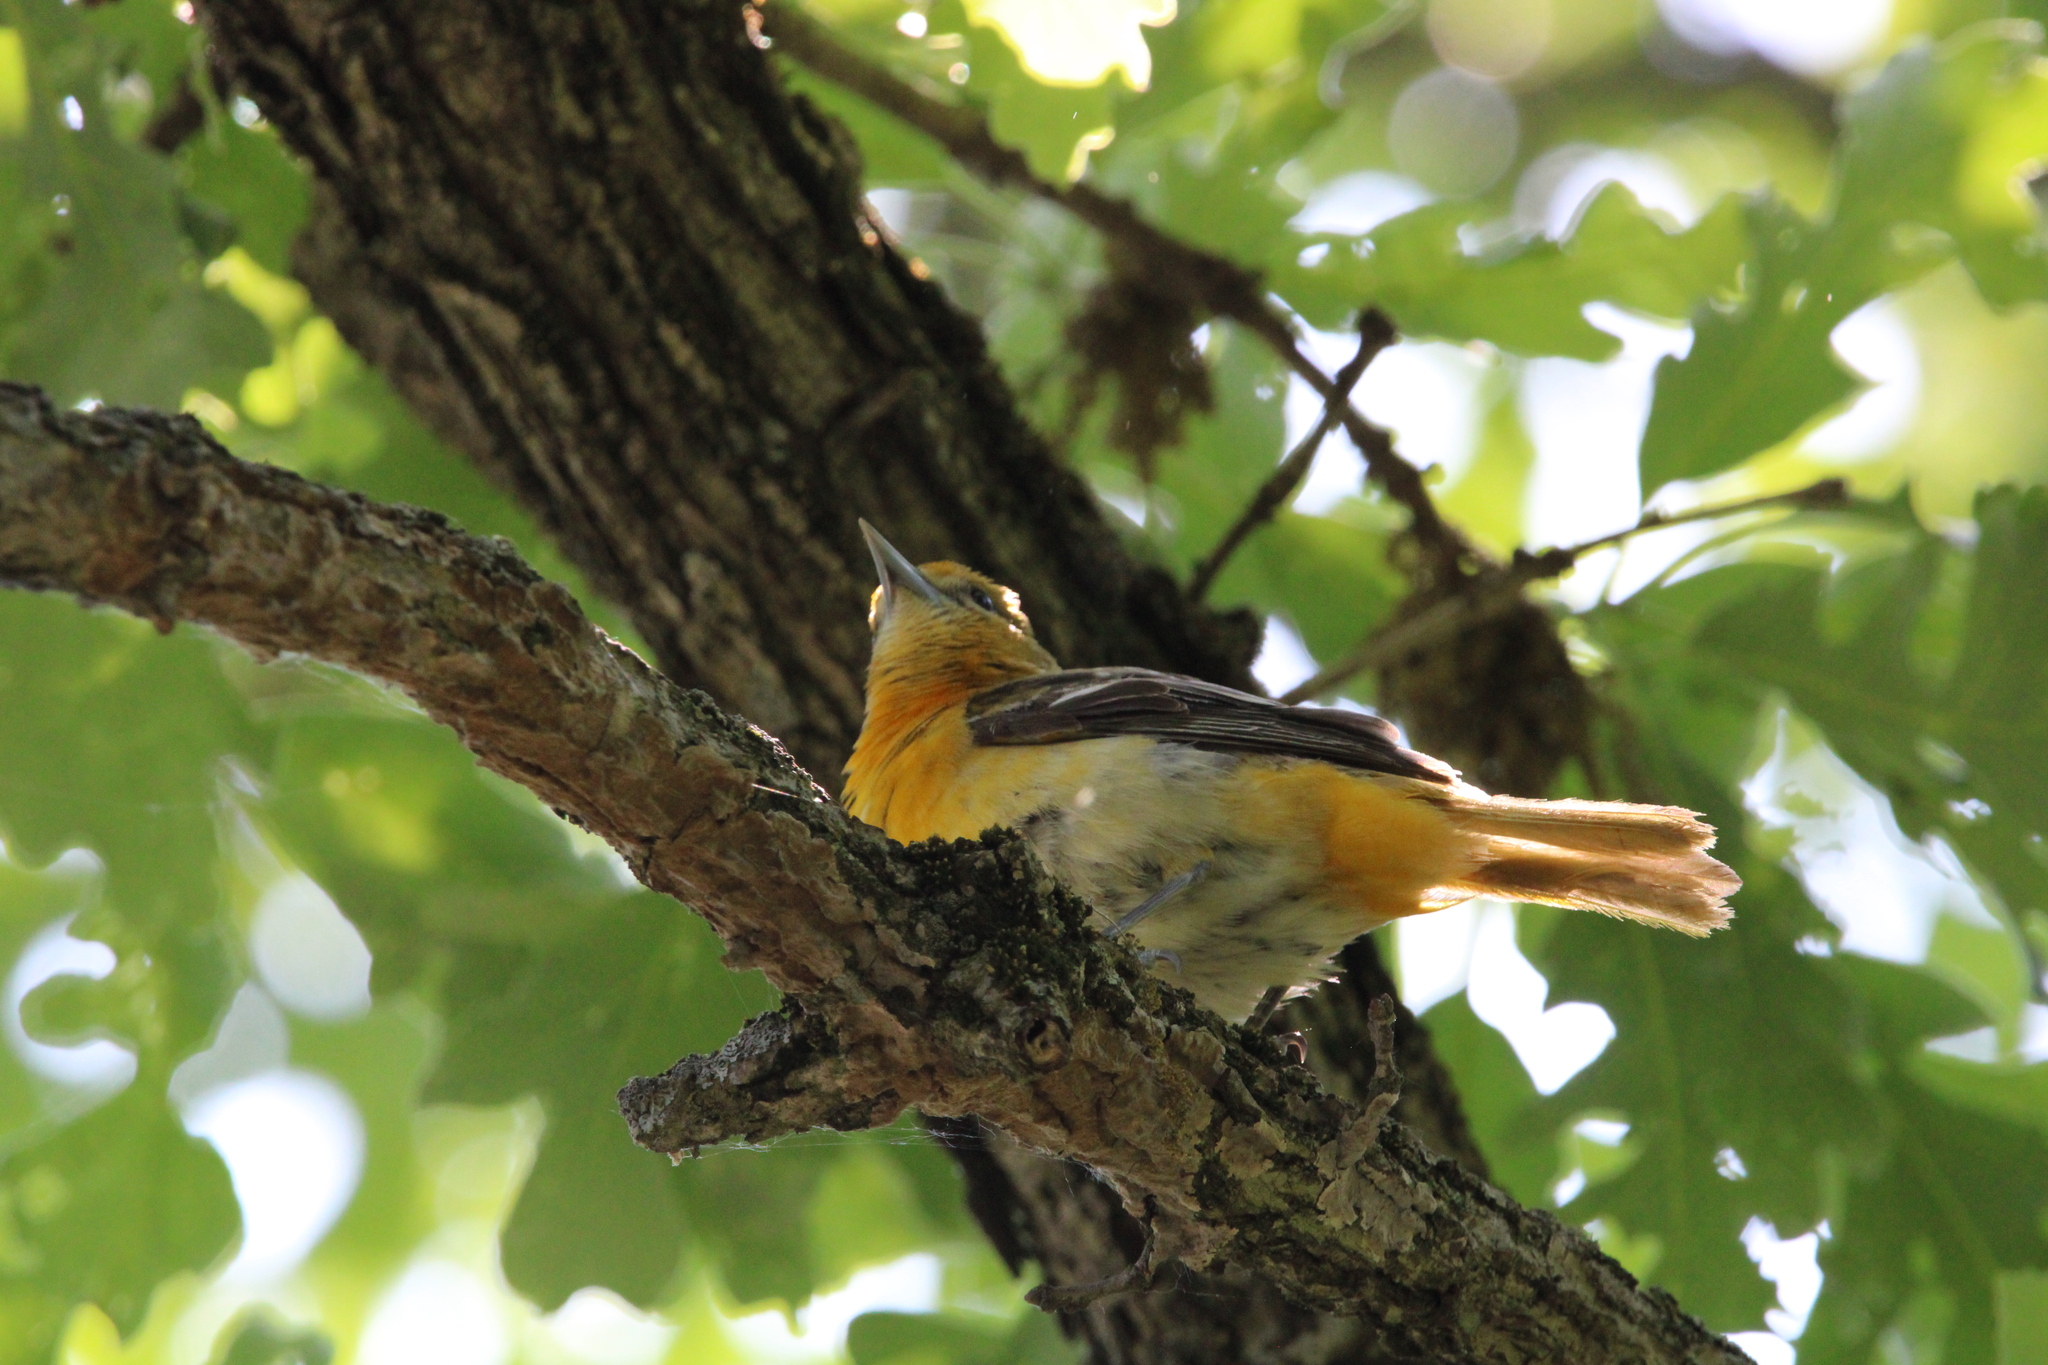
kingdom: Animalia
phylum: Chordata
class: Aves
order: Passeriformes
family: Icteridae
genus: Icterus
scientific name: Icterus galbula
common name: Baltimore oriole
